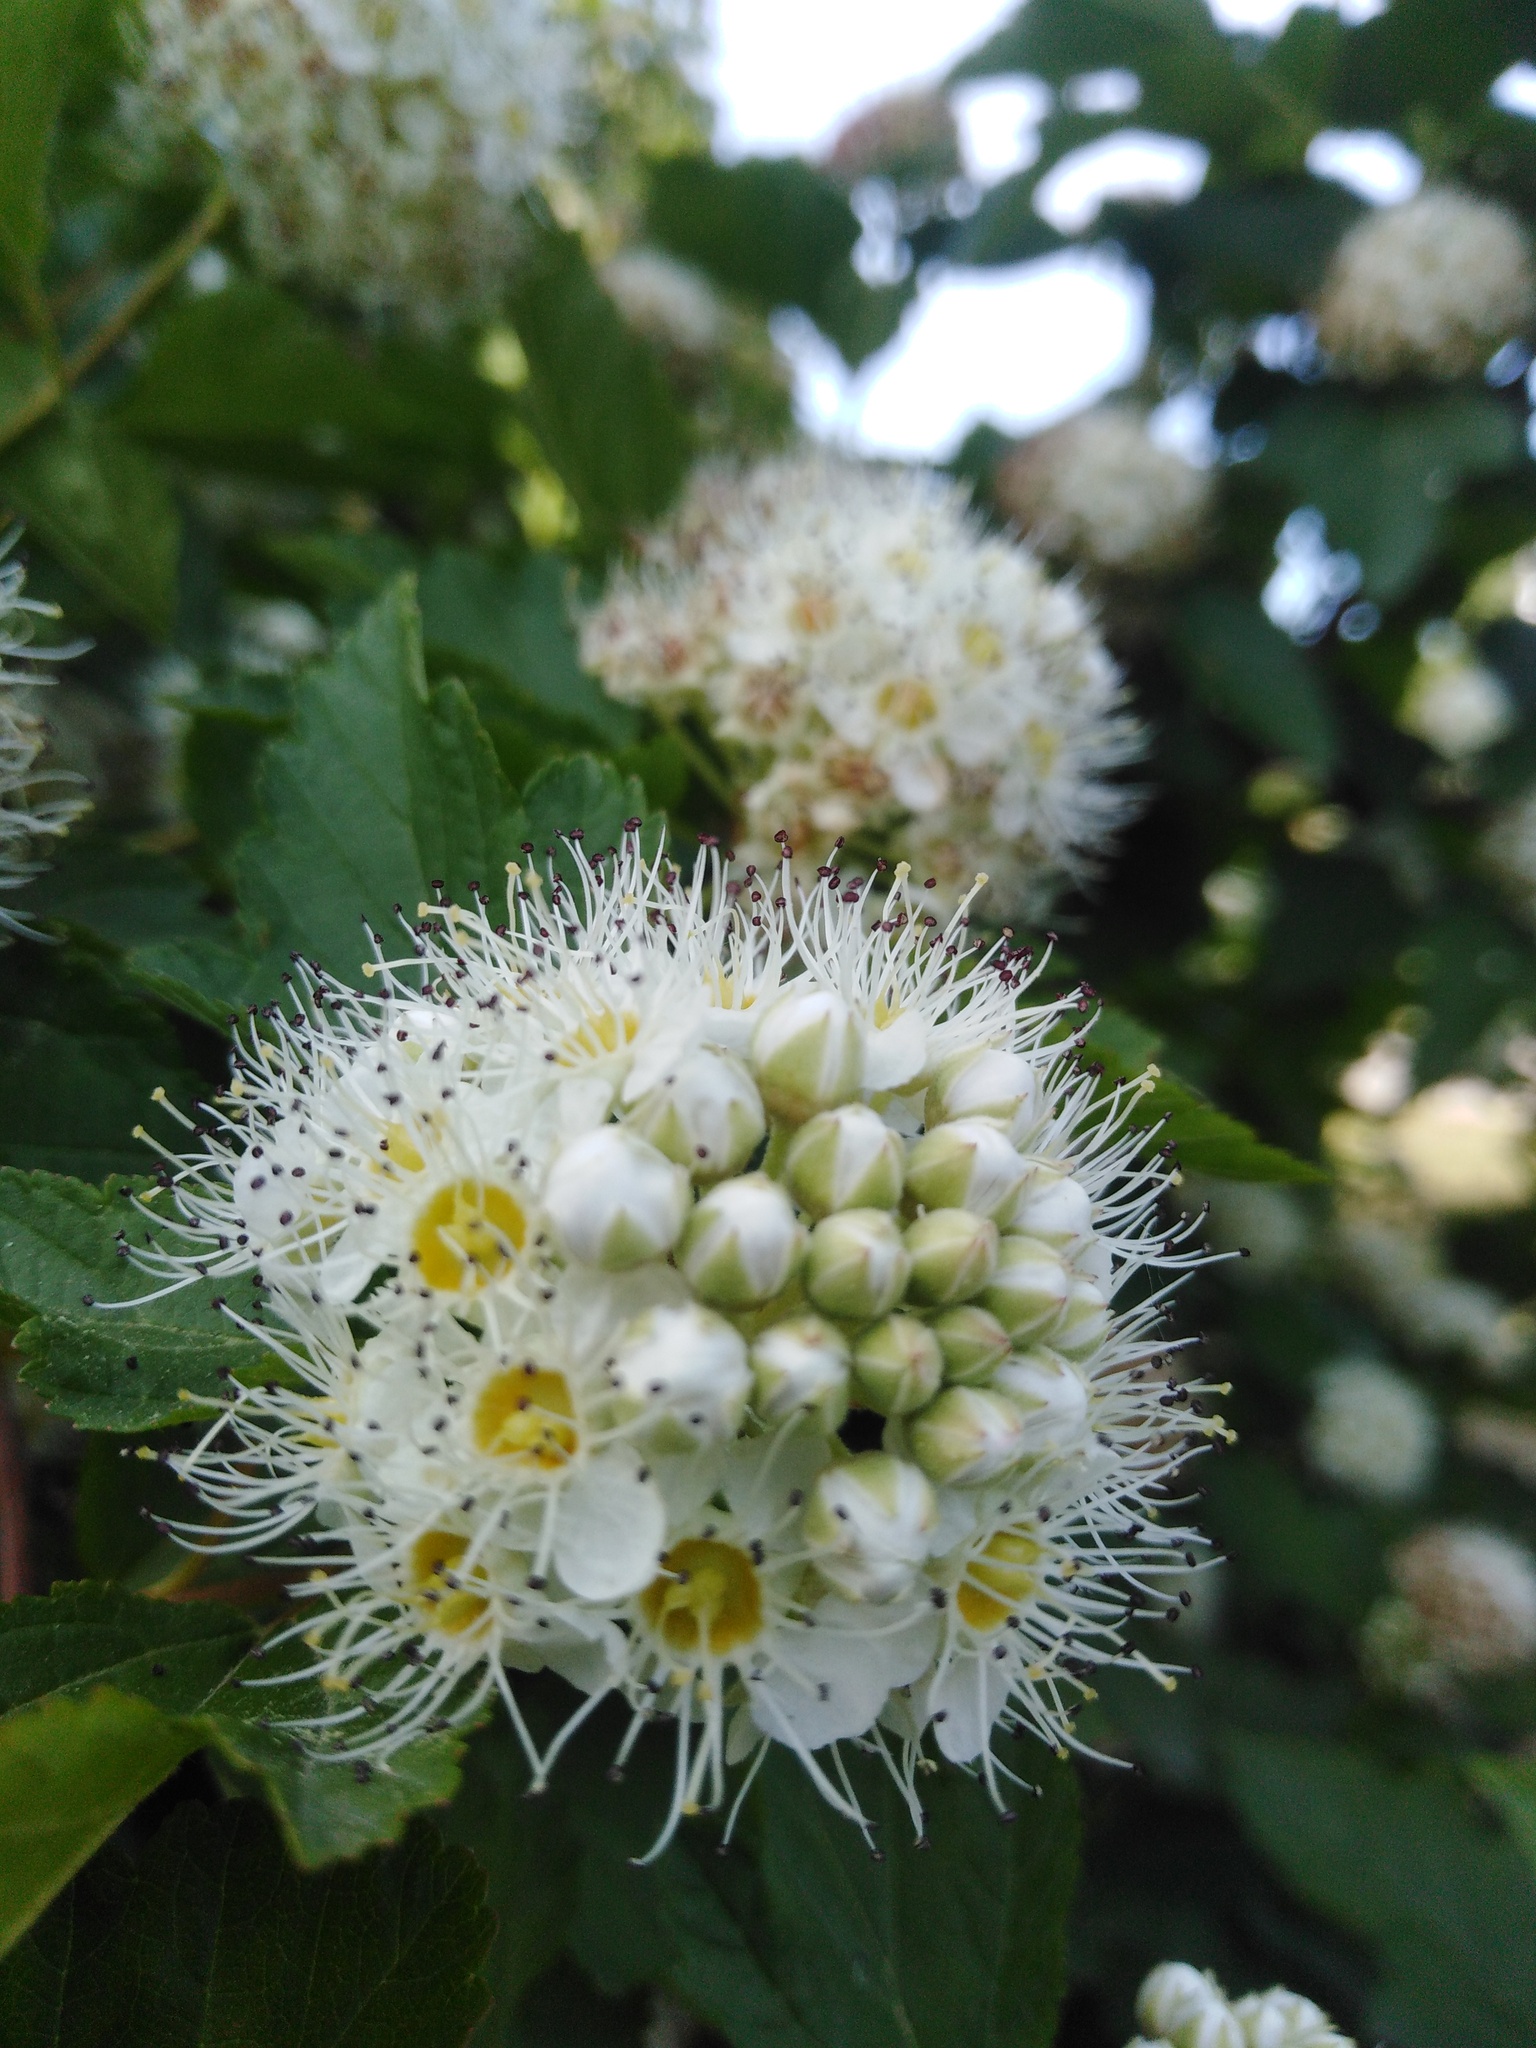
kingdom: Plantae
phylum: Tracheophyta
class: Magnoliopsida
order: Rosales
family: Rosaceae
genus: Physocarpus
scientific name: Physocarpus opulifolius
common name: Ninebark
